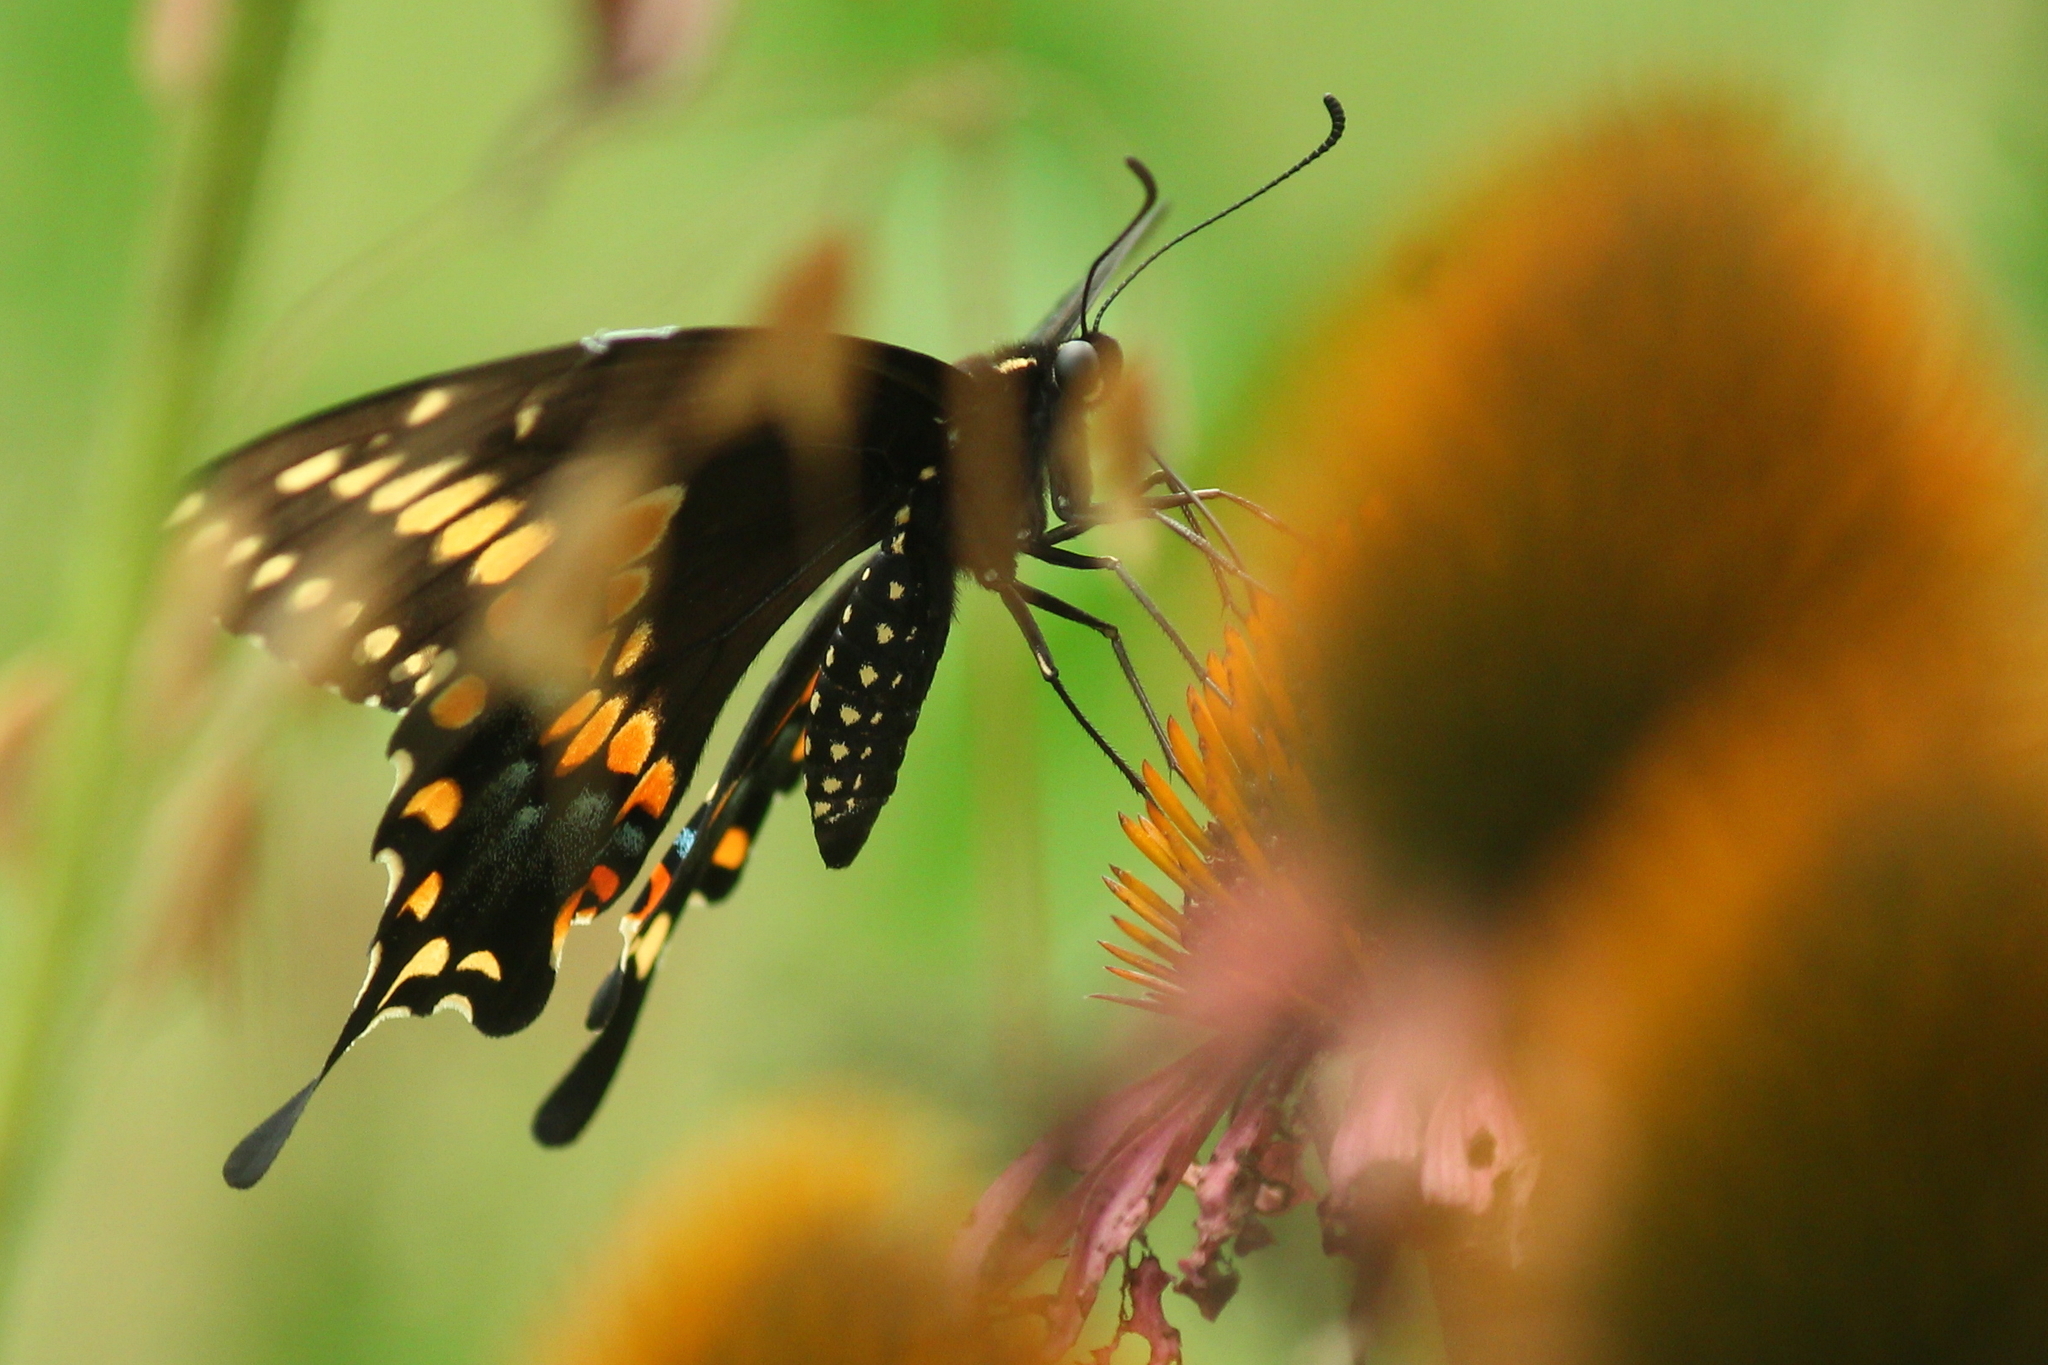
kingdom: Animalia
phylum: Arthropoda
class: Insecta
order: Lepidoptera
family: Papilionidae
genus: Papilio
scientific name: Papilio polyxenes
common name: Black swallowtail
